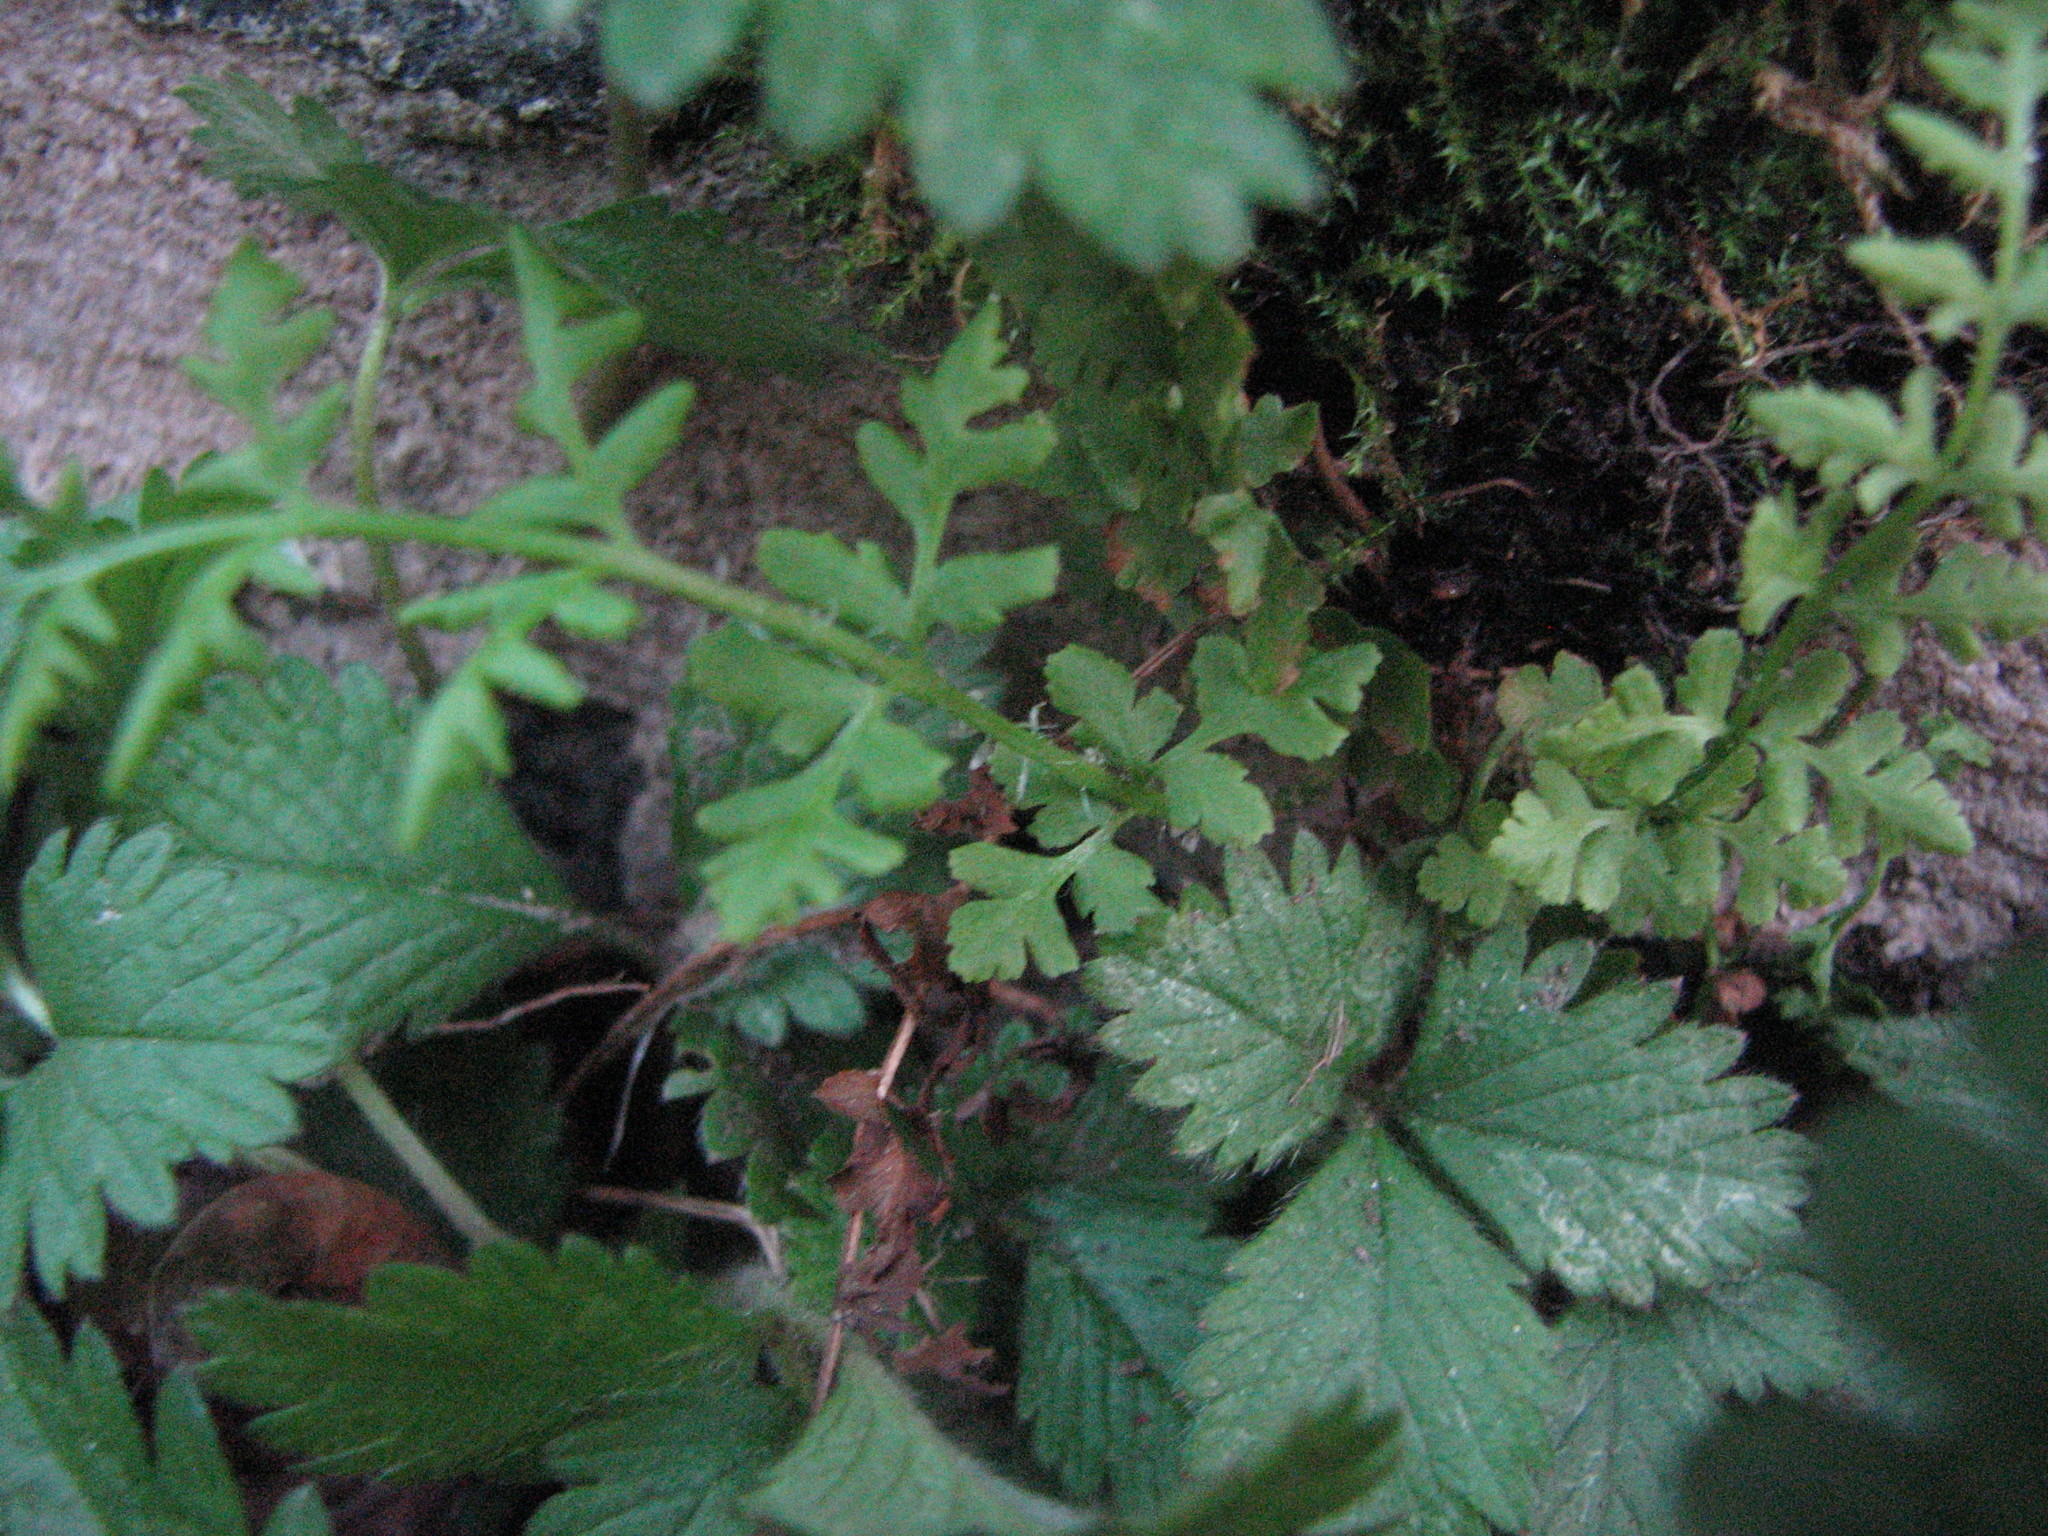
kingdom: Plantae
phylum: Tracheophyta
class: Polypodiopsida
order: Polypodiales
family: Woodsiaceae
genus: Physematium
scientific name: Physematium obtusum
